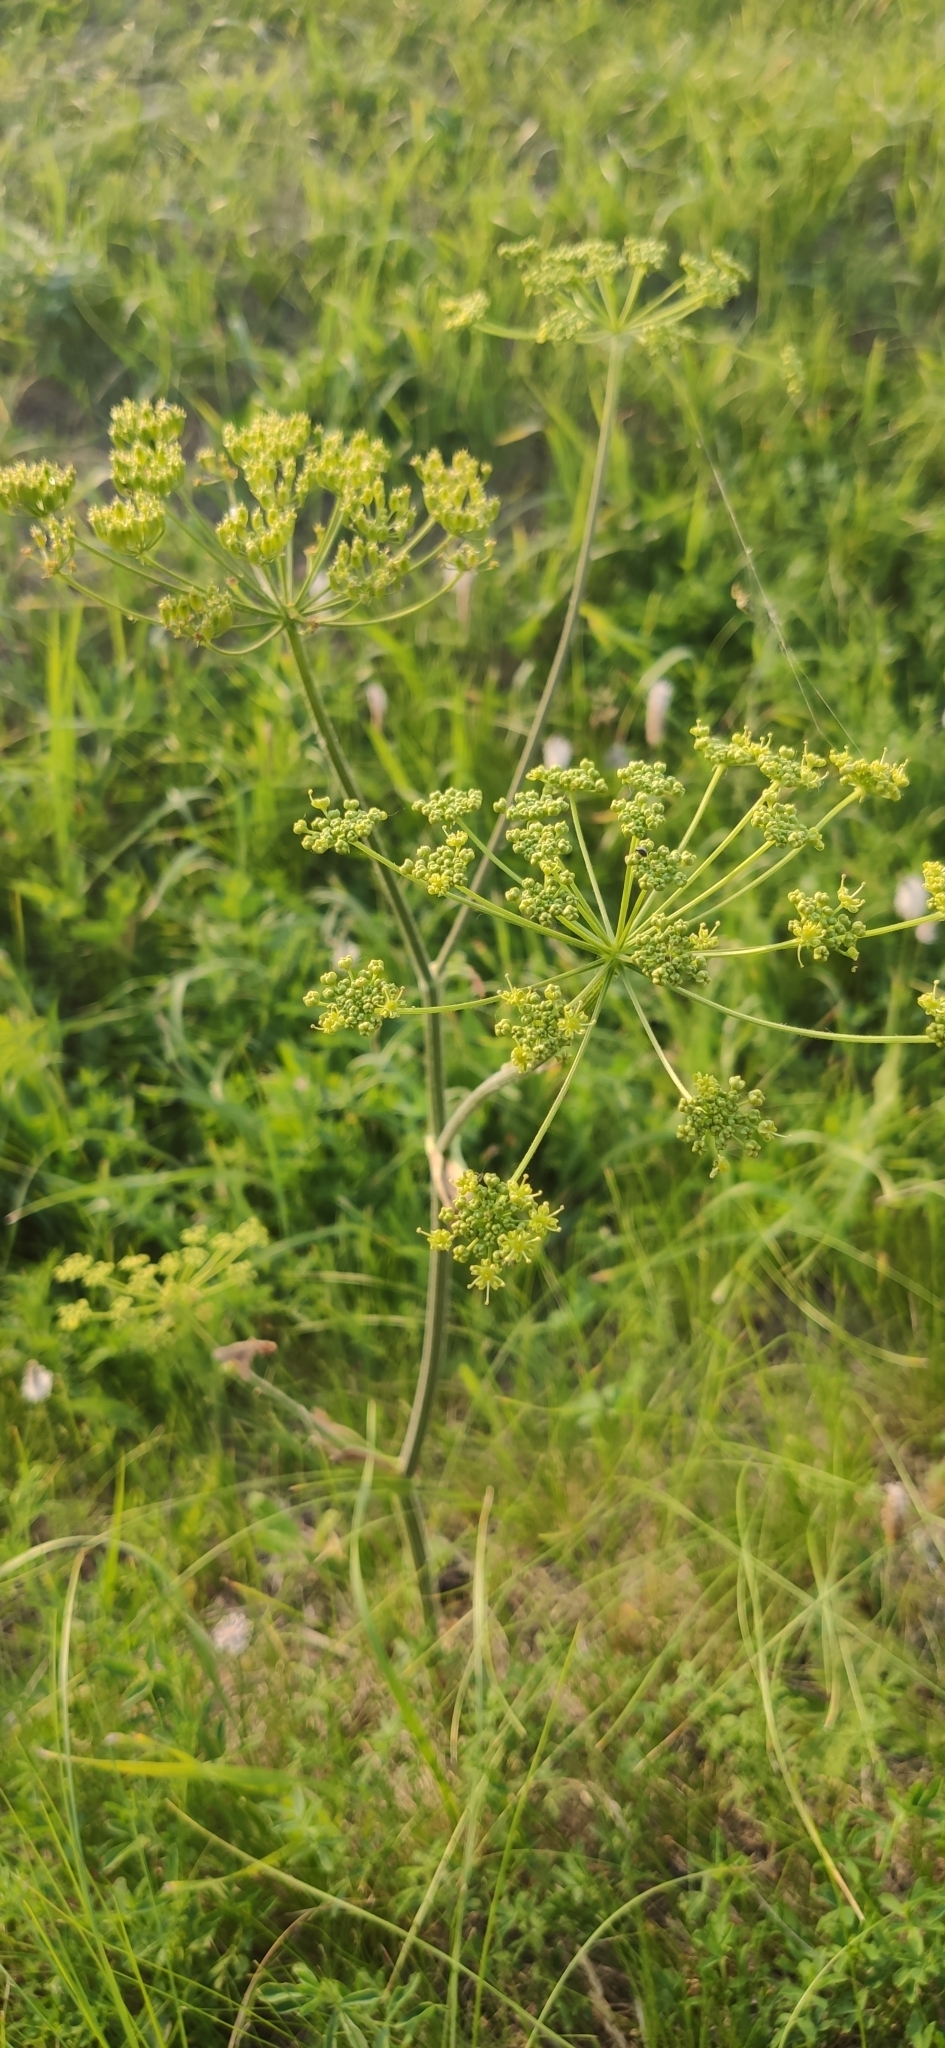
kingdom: Plantae
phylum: Tracheophyta
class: Magnoliopsida
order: Apiales
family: Apiaceae
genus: Heracleum
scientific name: Heracleum sphondylium
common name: Hogweed
